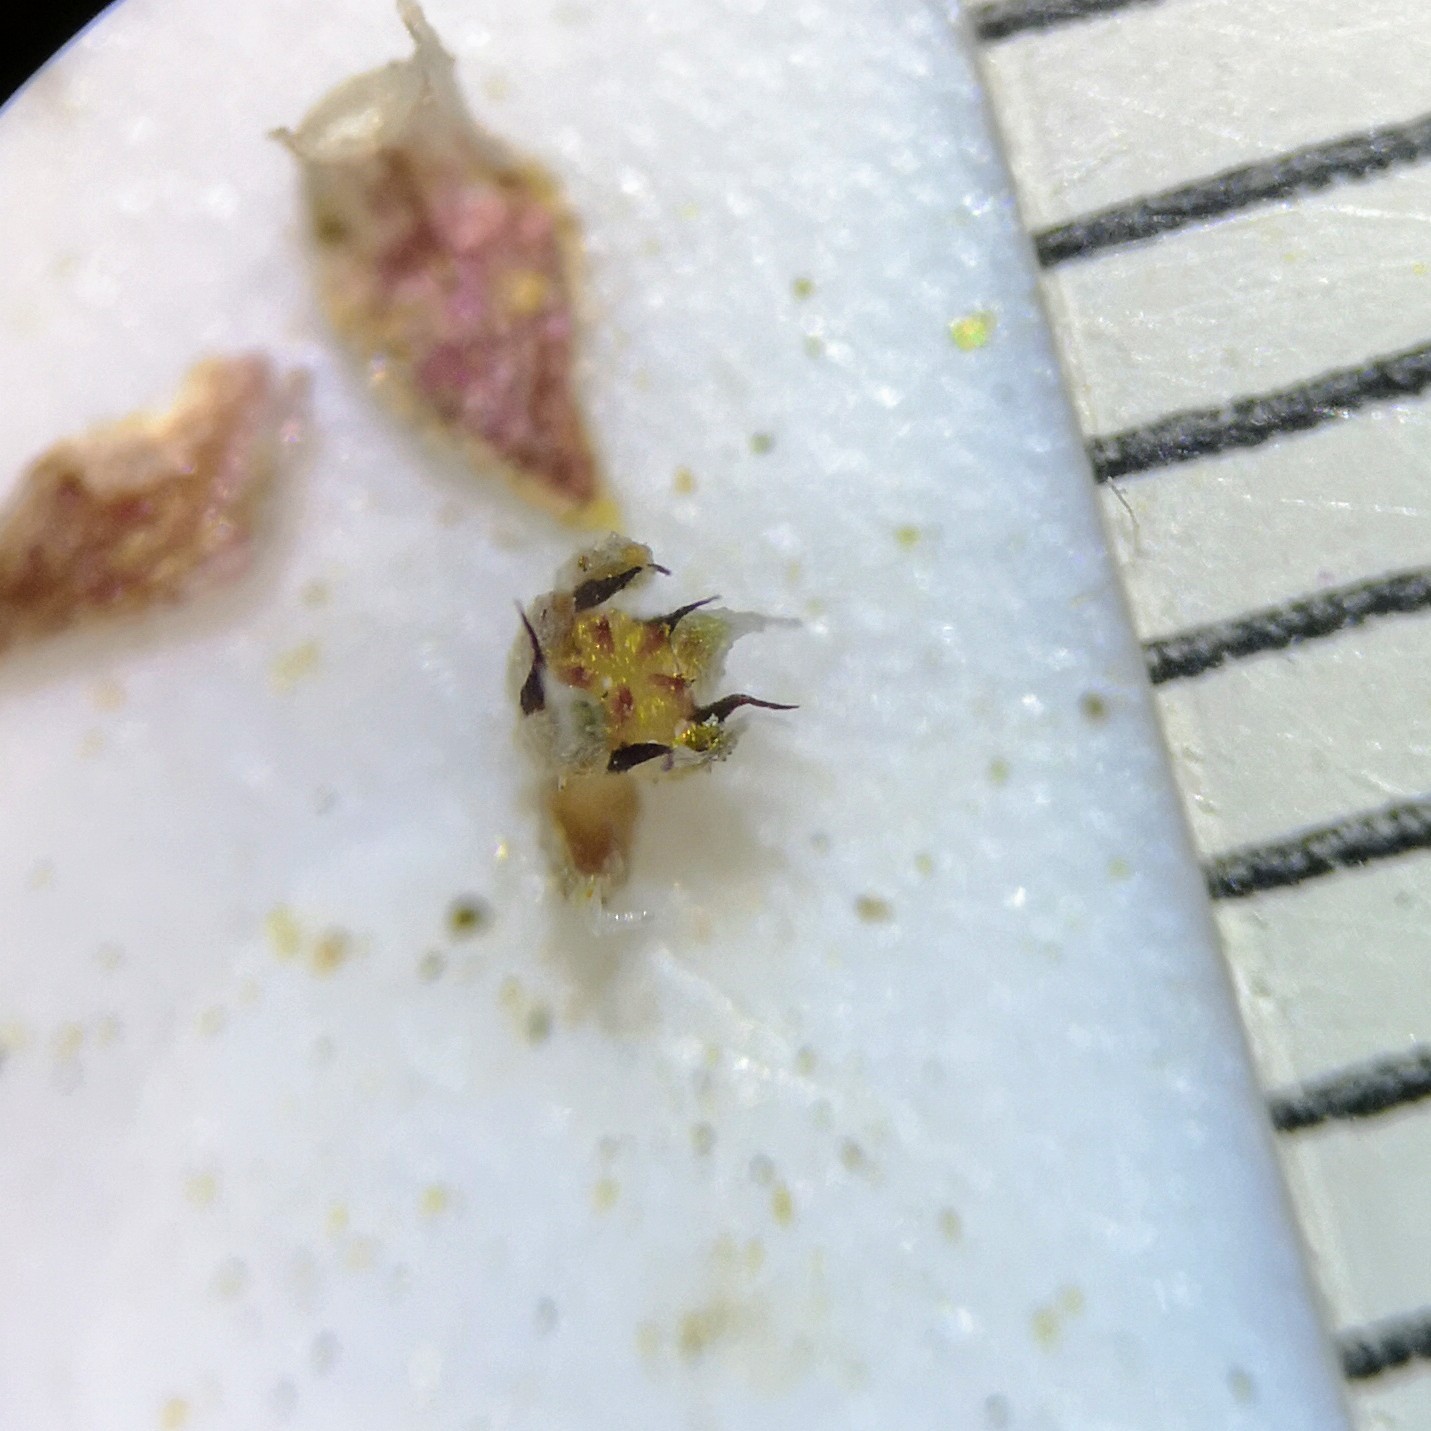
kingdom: Plantae
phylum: Tracheophyta
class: Magnoliopsida
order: Saxifragales
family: Crassulaceae
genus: Crassula
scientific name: Crassula colligata
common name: Pygmyweed
